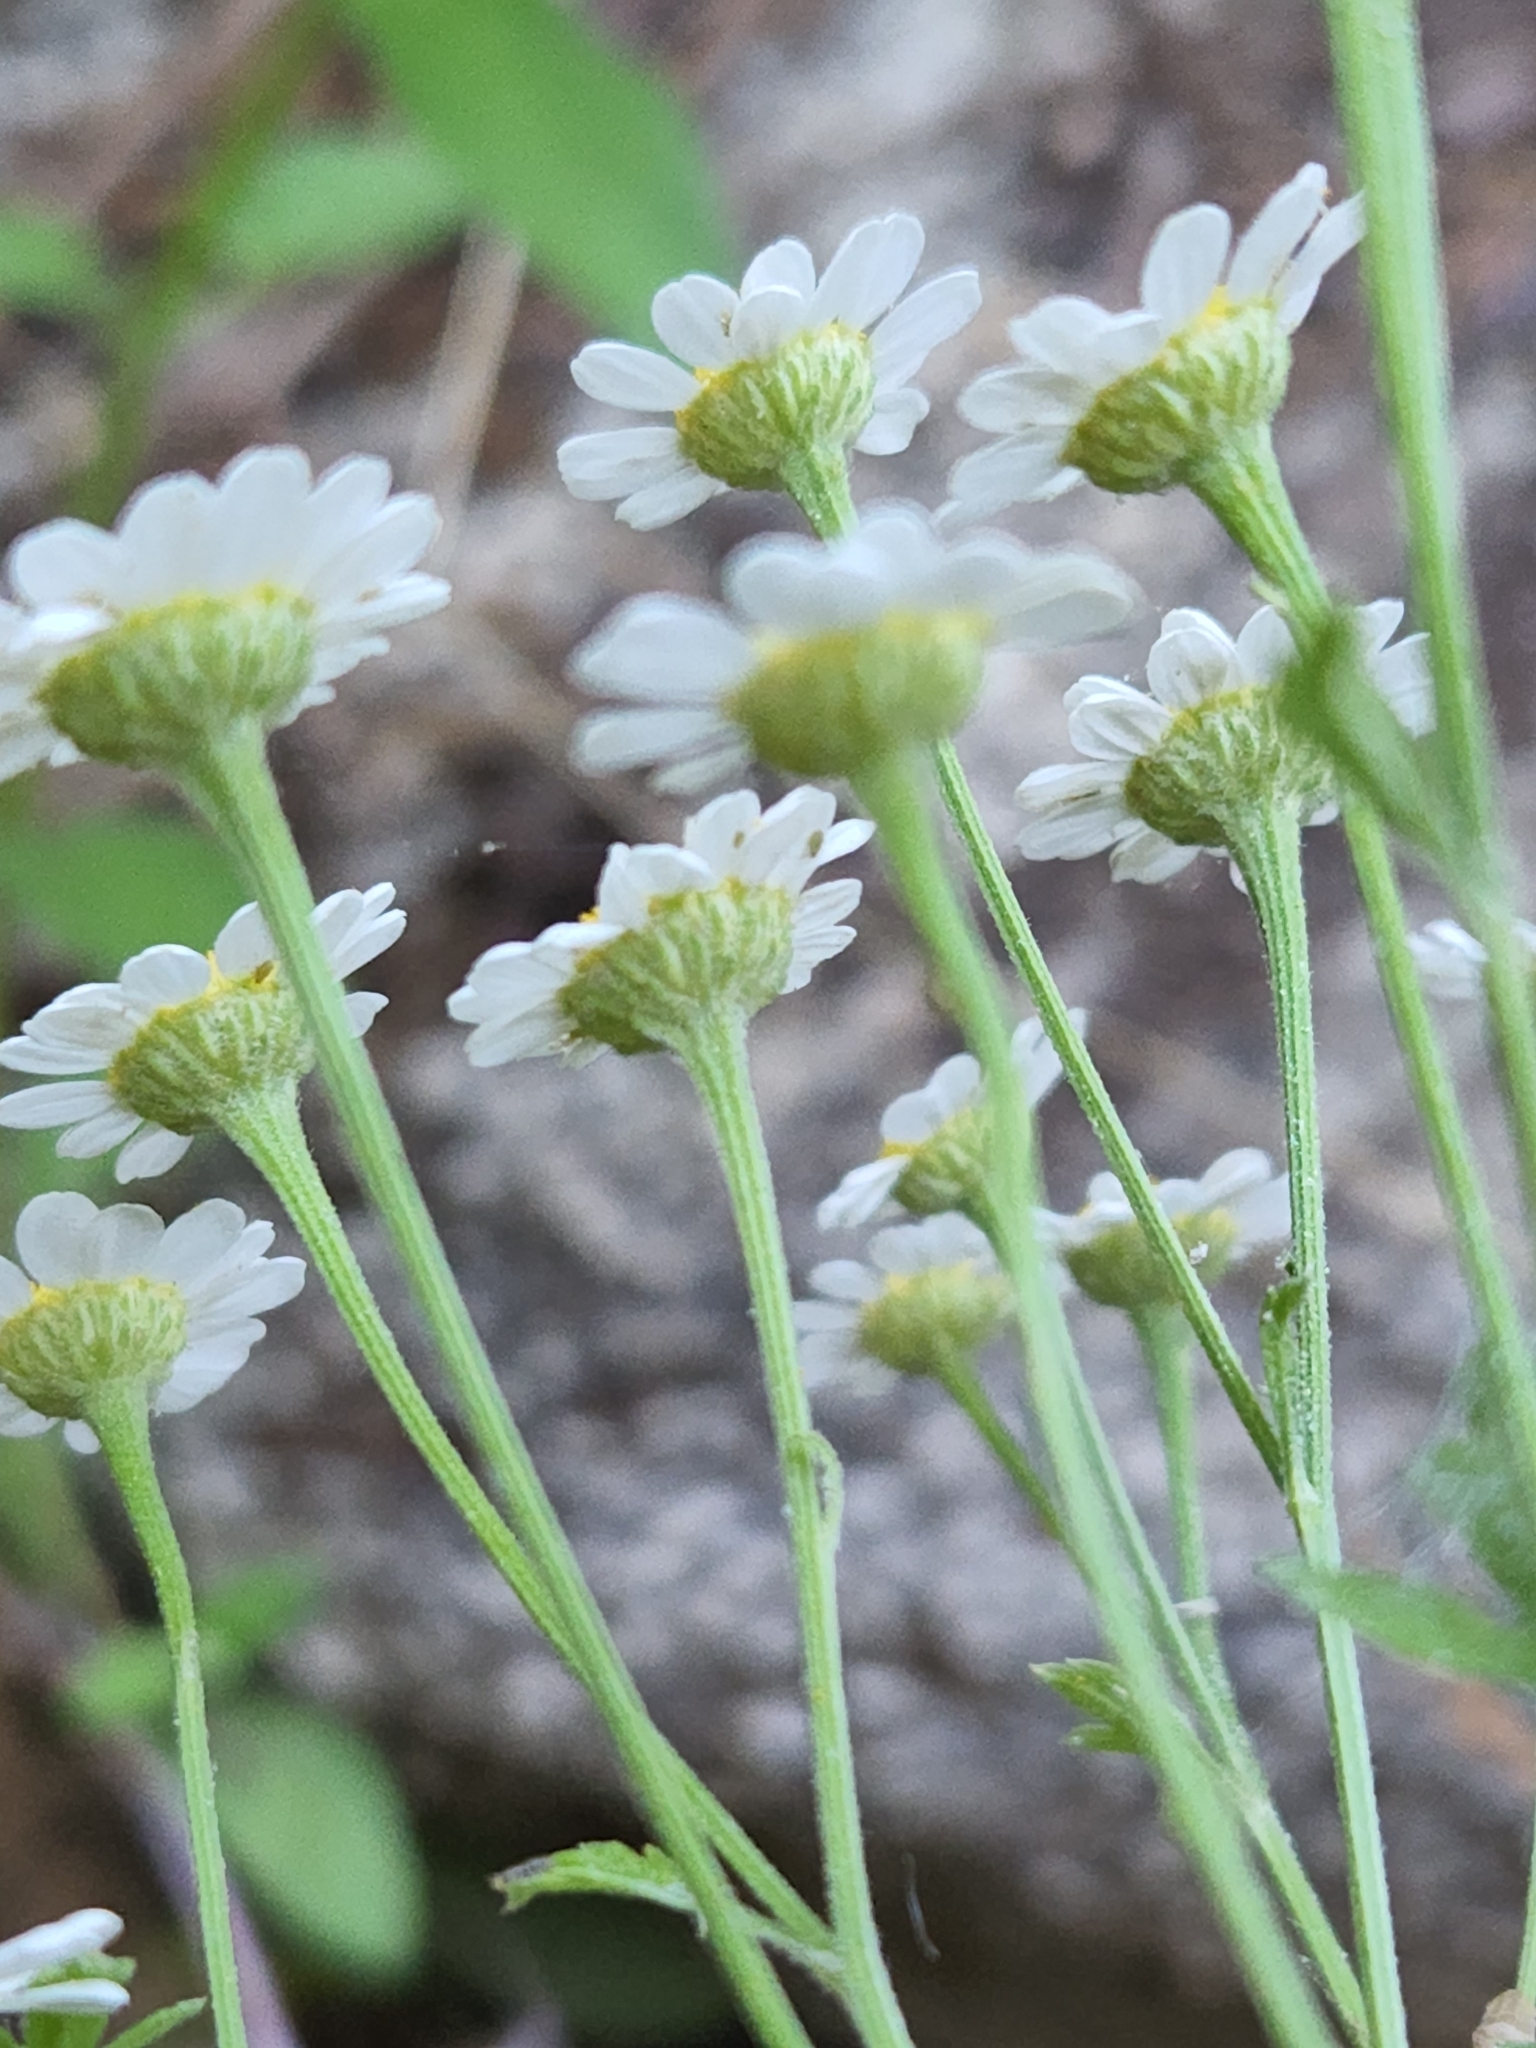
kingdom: Plantae
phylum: Tracheophyta
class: Magnoliopsida
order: Asterales
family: Asteraceae
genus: Tanacetum
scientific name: Tanacetum parthenium
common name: Feverfew
